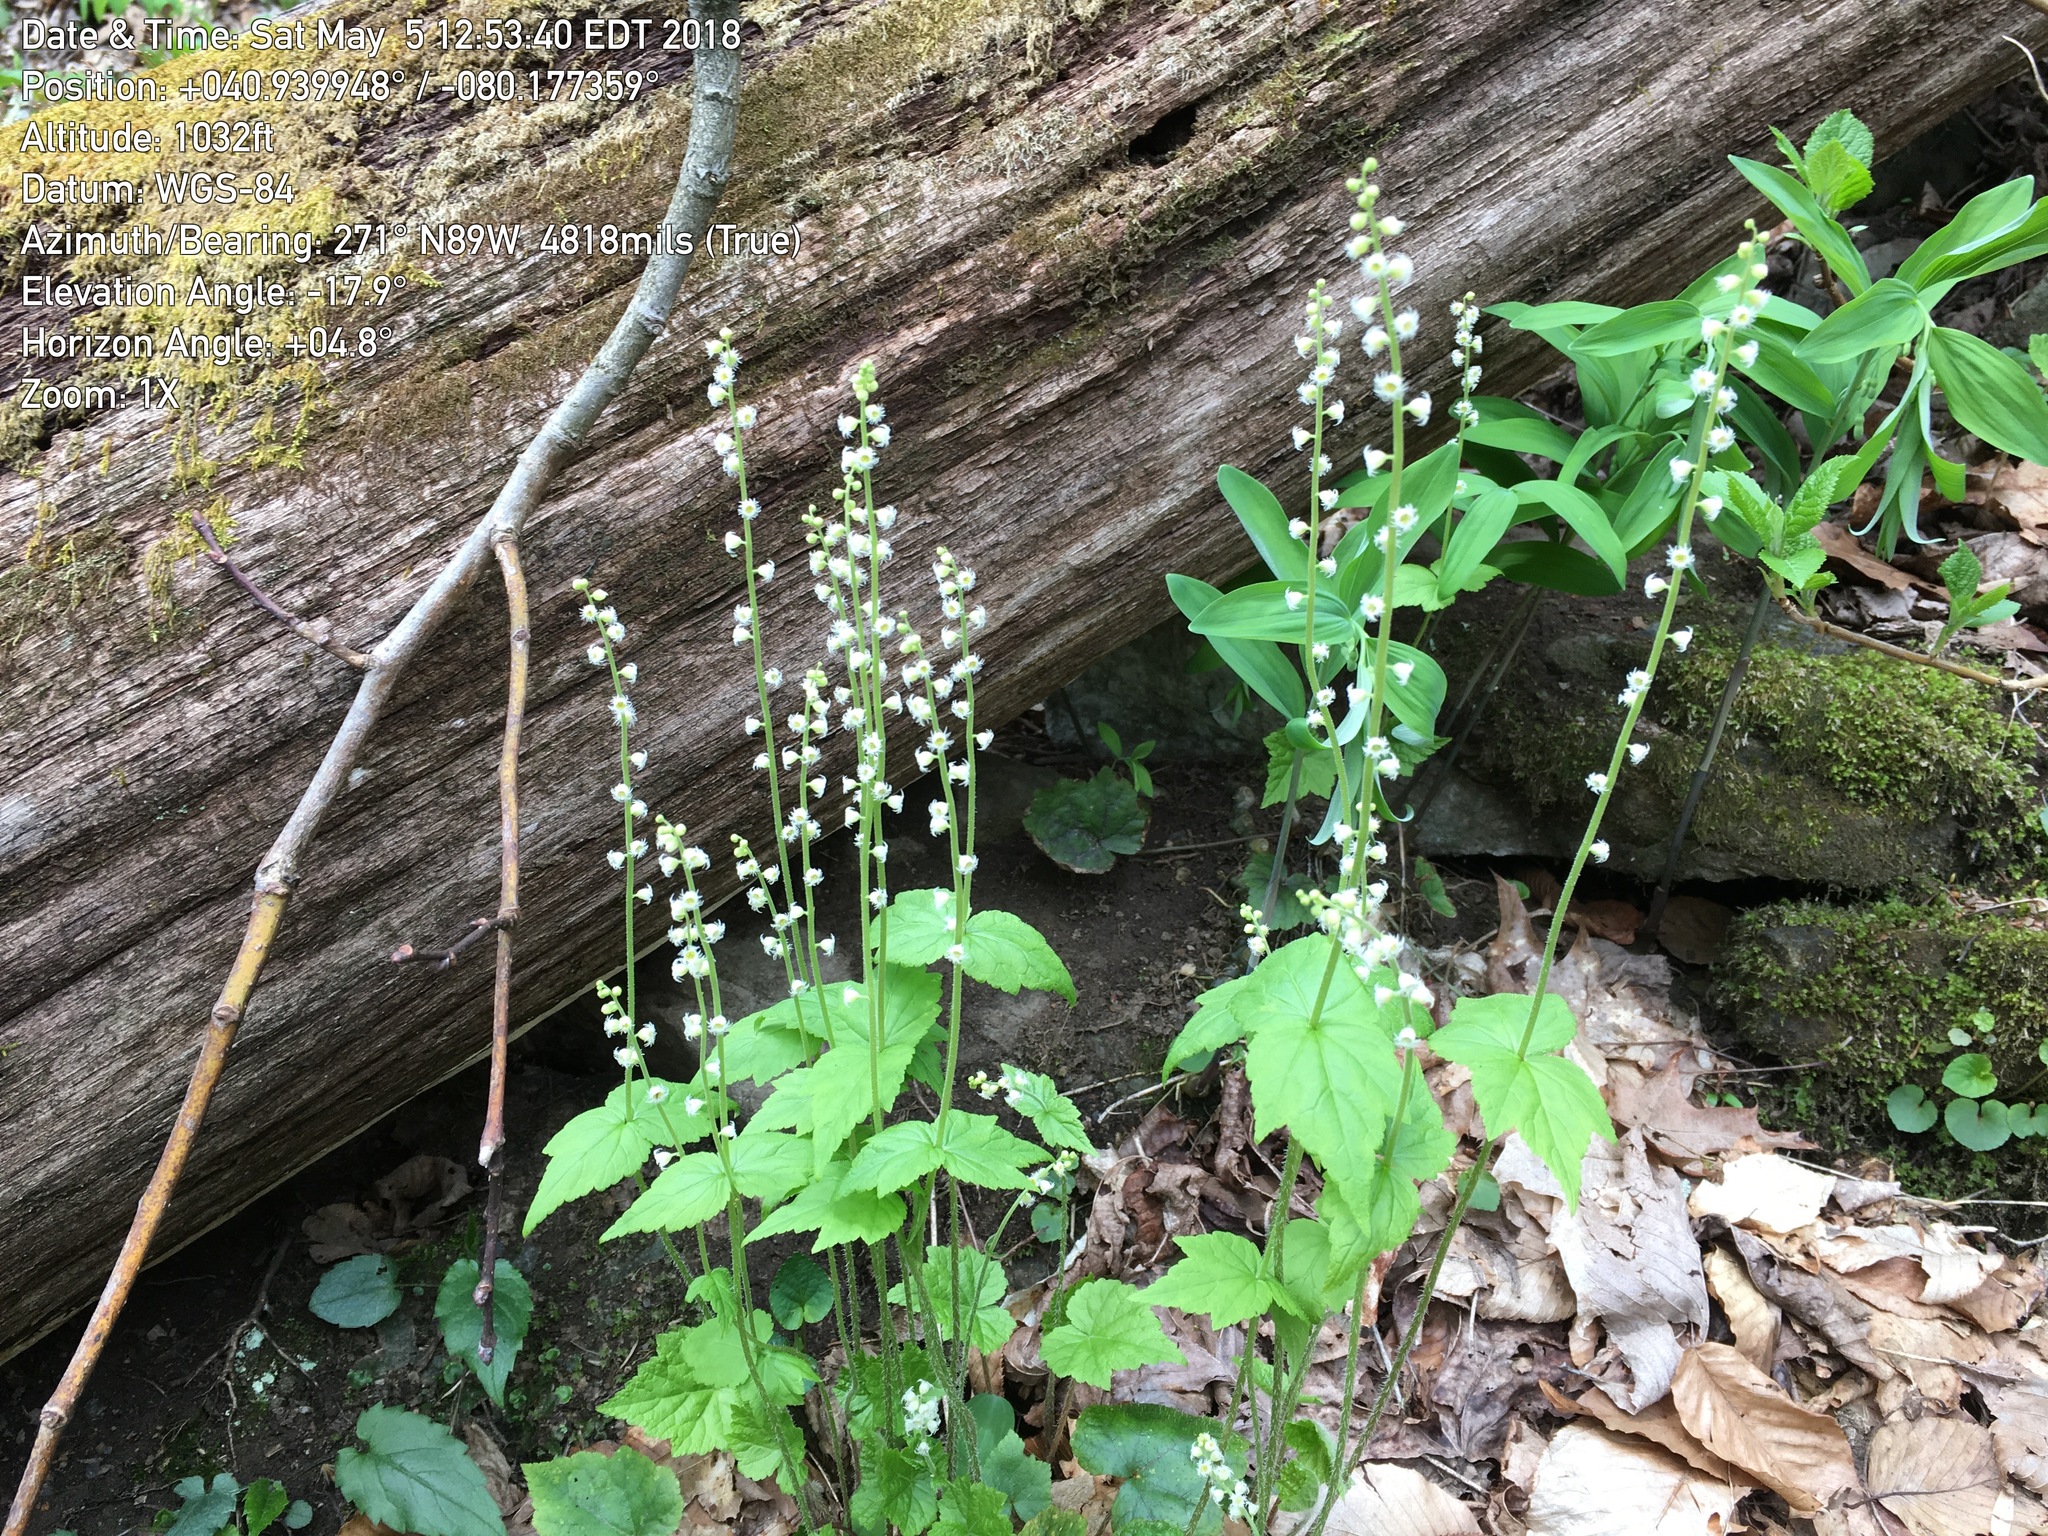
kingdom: Plantae
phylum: Tracheophyta
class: Magnoliopsida
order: Saxifragales
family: Saxifragaceae
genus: Mitella
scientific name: Mitella diphylla
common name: Coolwort
